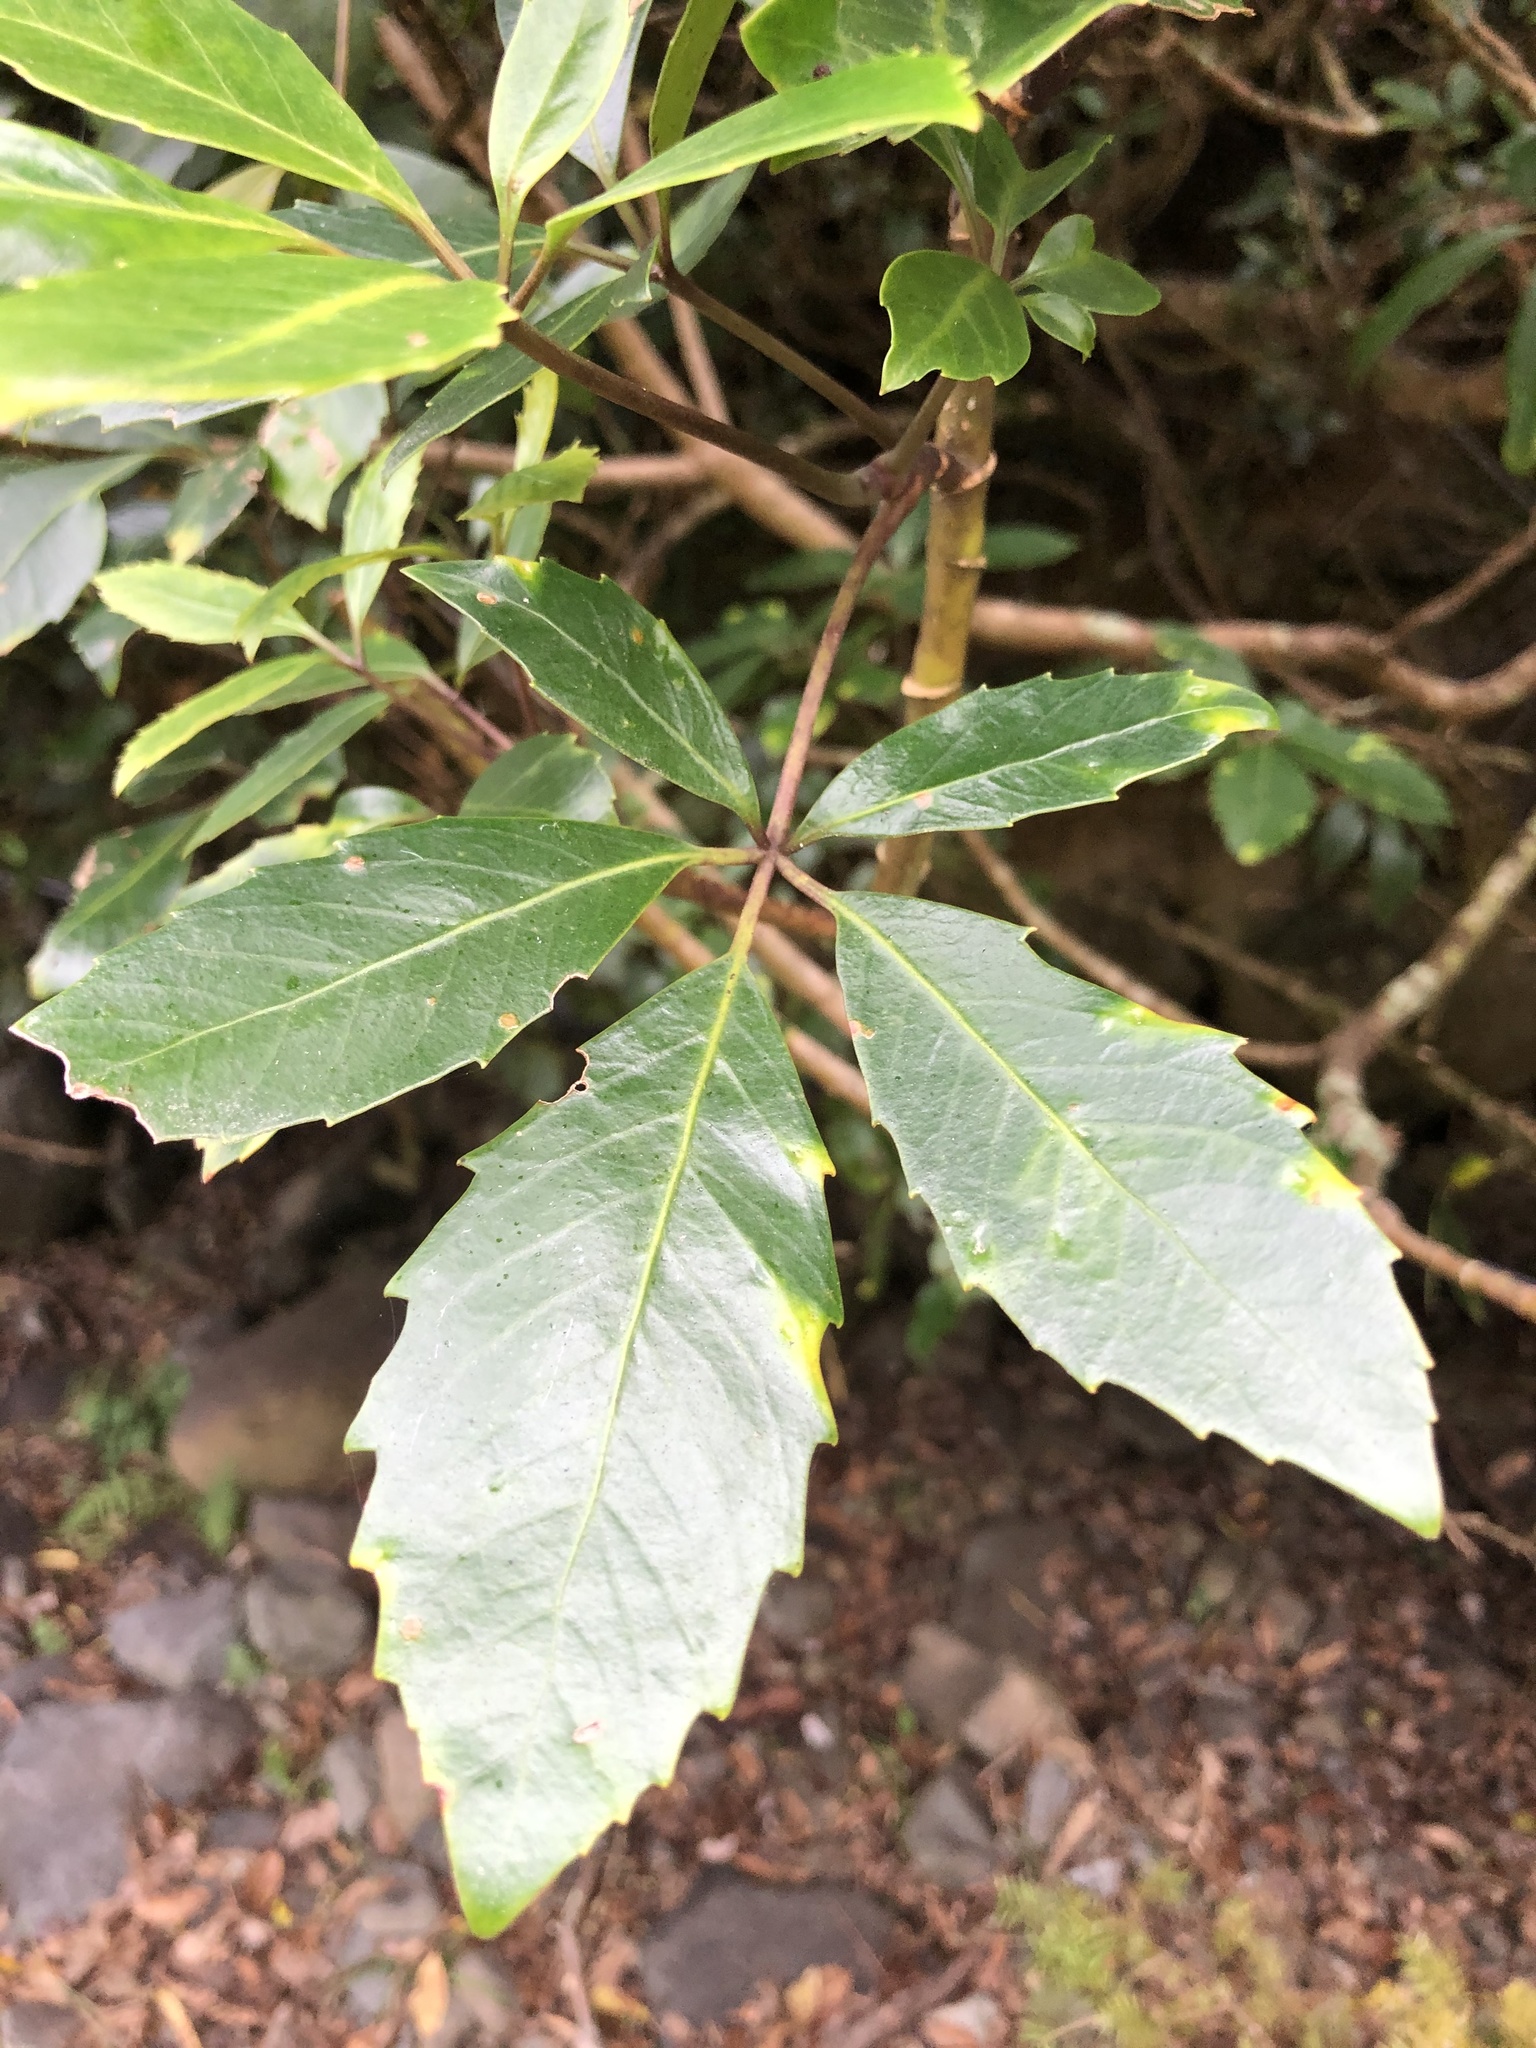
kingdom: Plantae
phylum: Tracheophyta
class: Magnoliopsida
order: Apiales
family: Araliaceae
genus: Neopanax
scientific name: Neopanax arboreus
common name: Five-fingers
